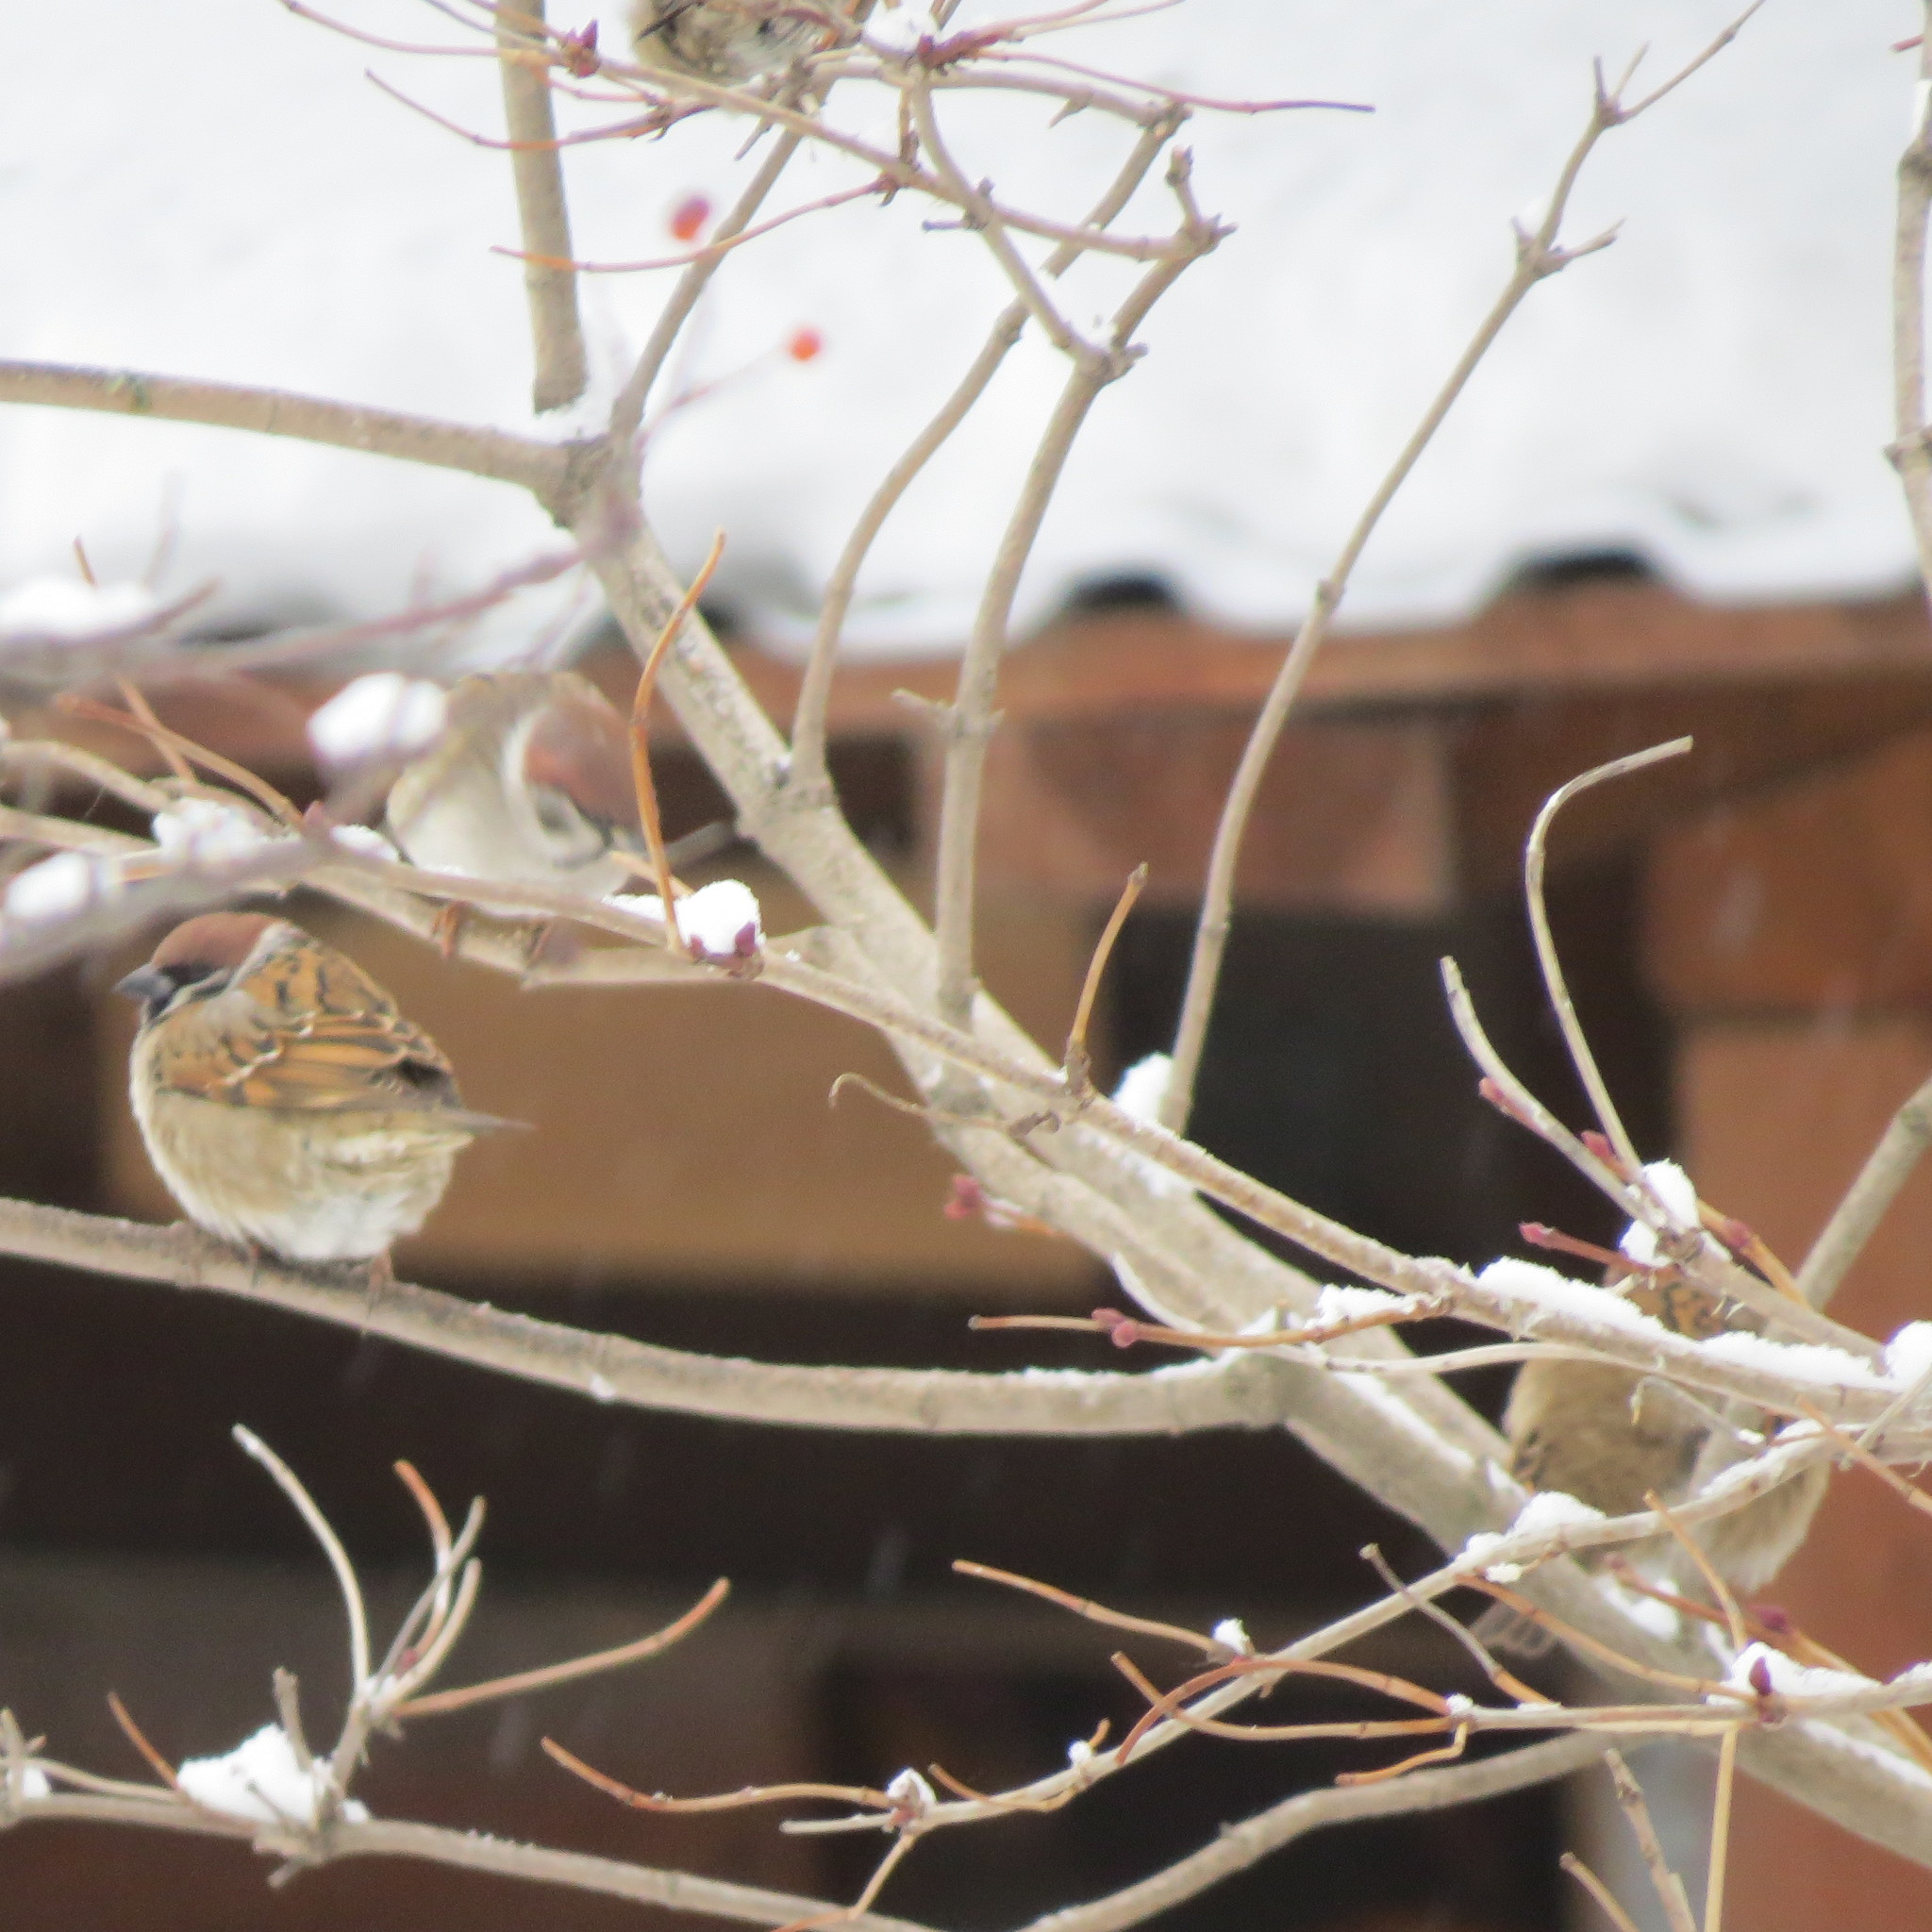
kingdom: Animalia
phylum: Chordata
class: Aves
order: Passeriformes
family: Passeridae
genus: Passer
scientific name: Passer montanus
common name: Eurasian tree sparrow
